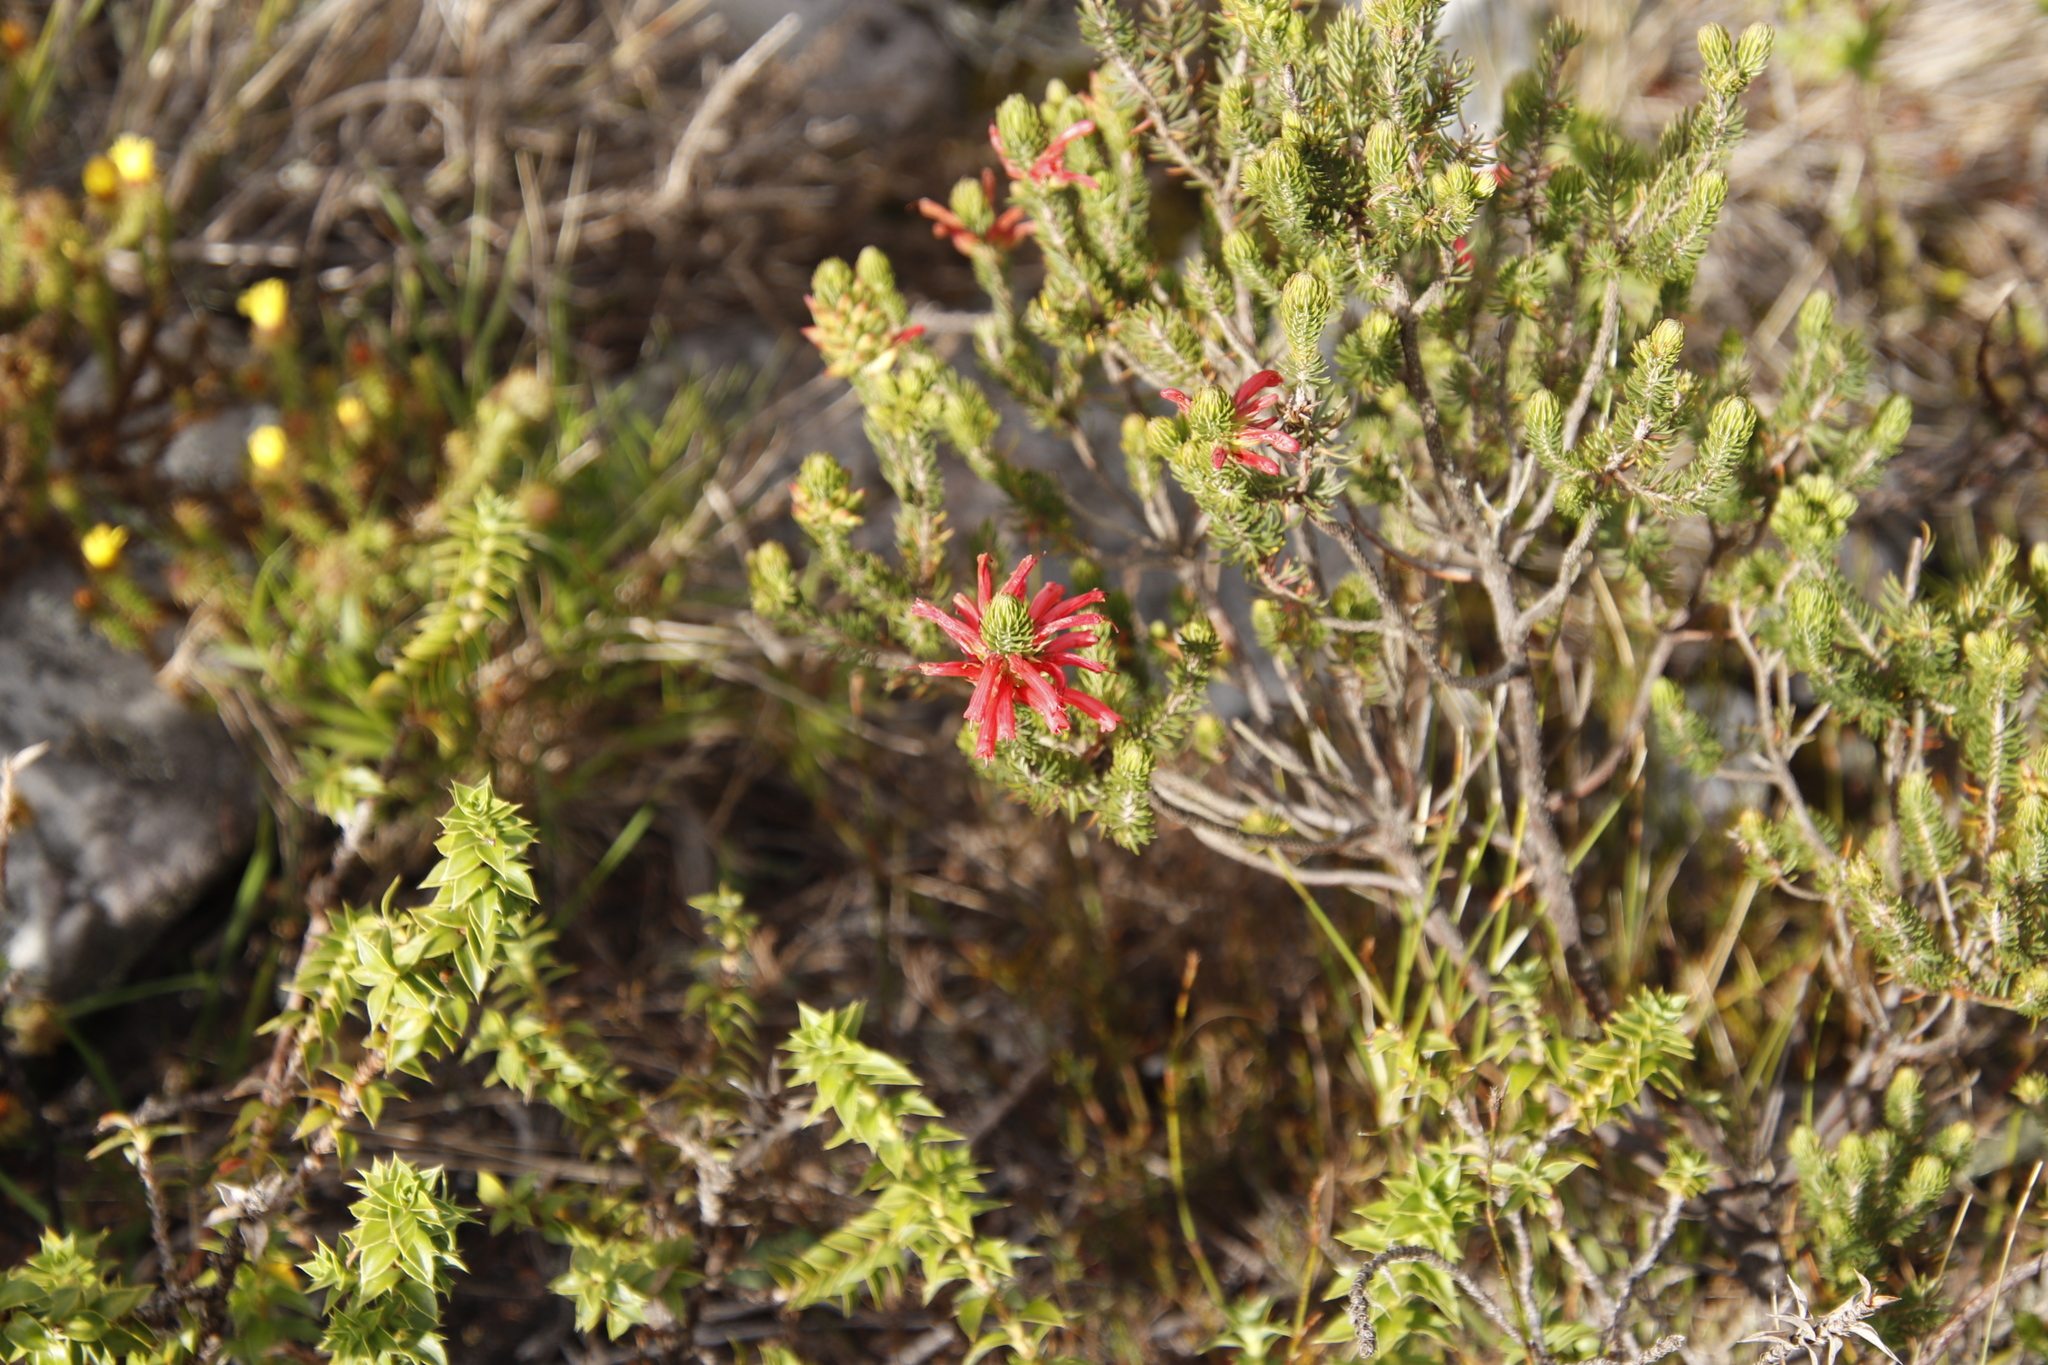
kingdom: Plantae
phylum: Tracheophyta
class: Magnoliopsida
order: Ericales
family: Ericaceae
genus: Erica
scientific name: Erica abietina
